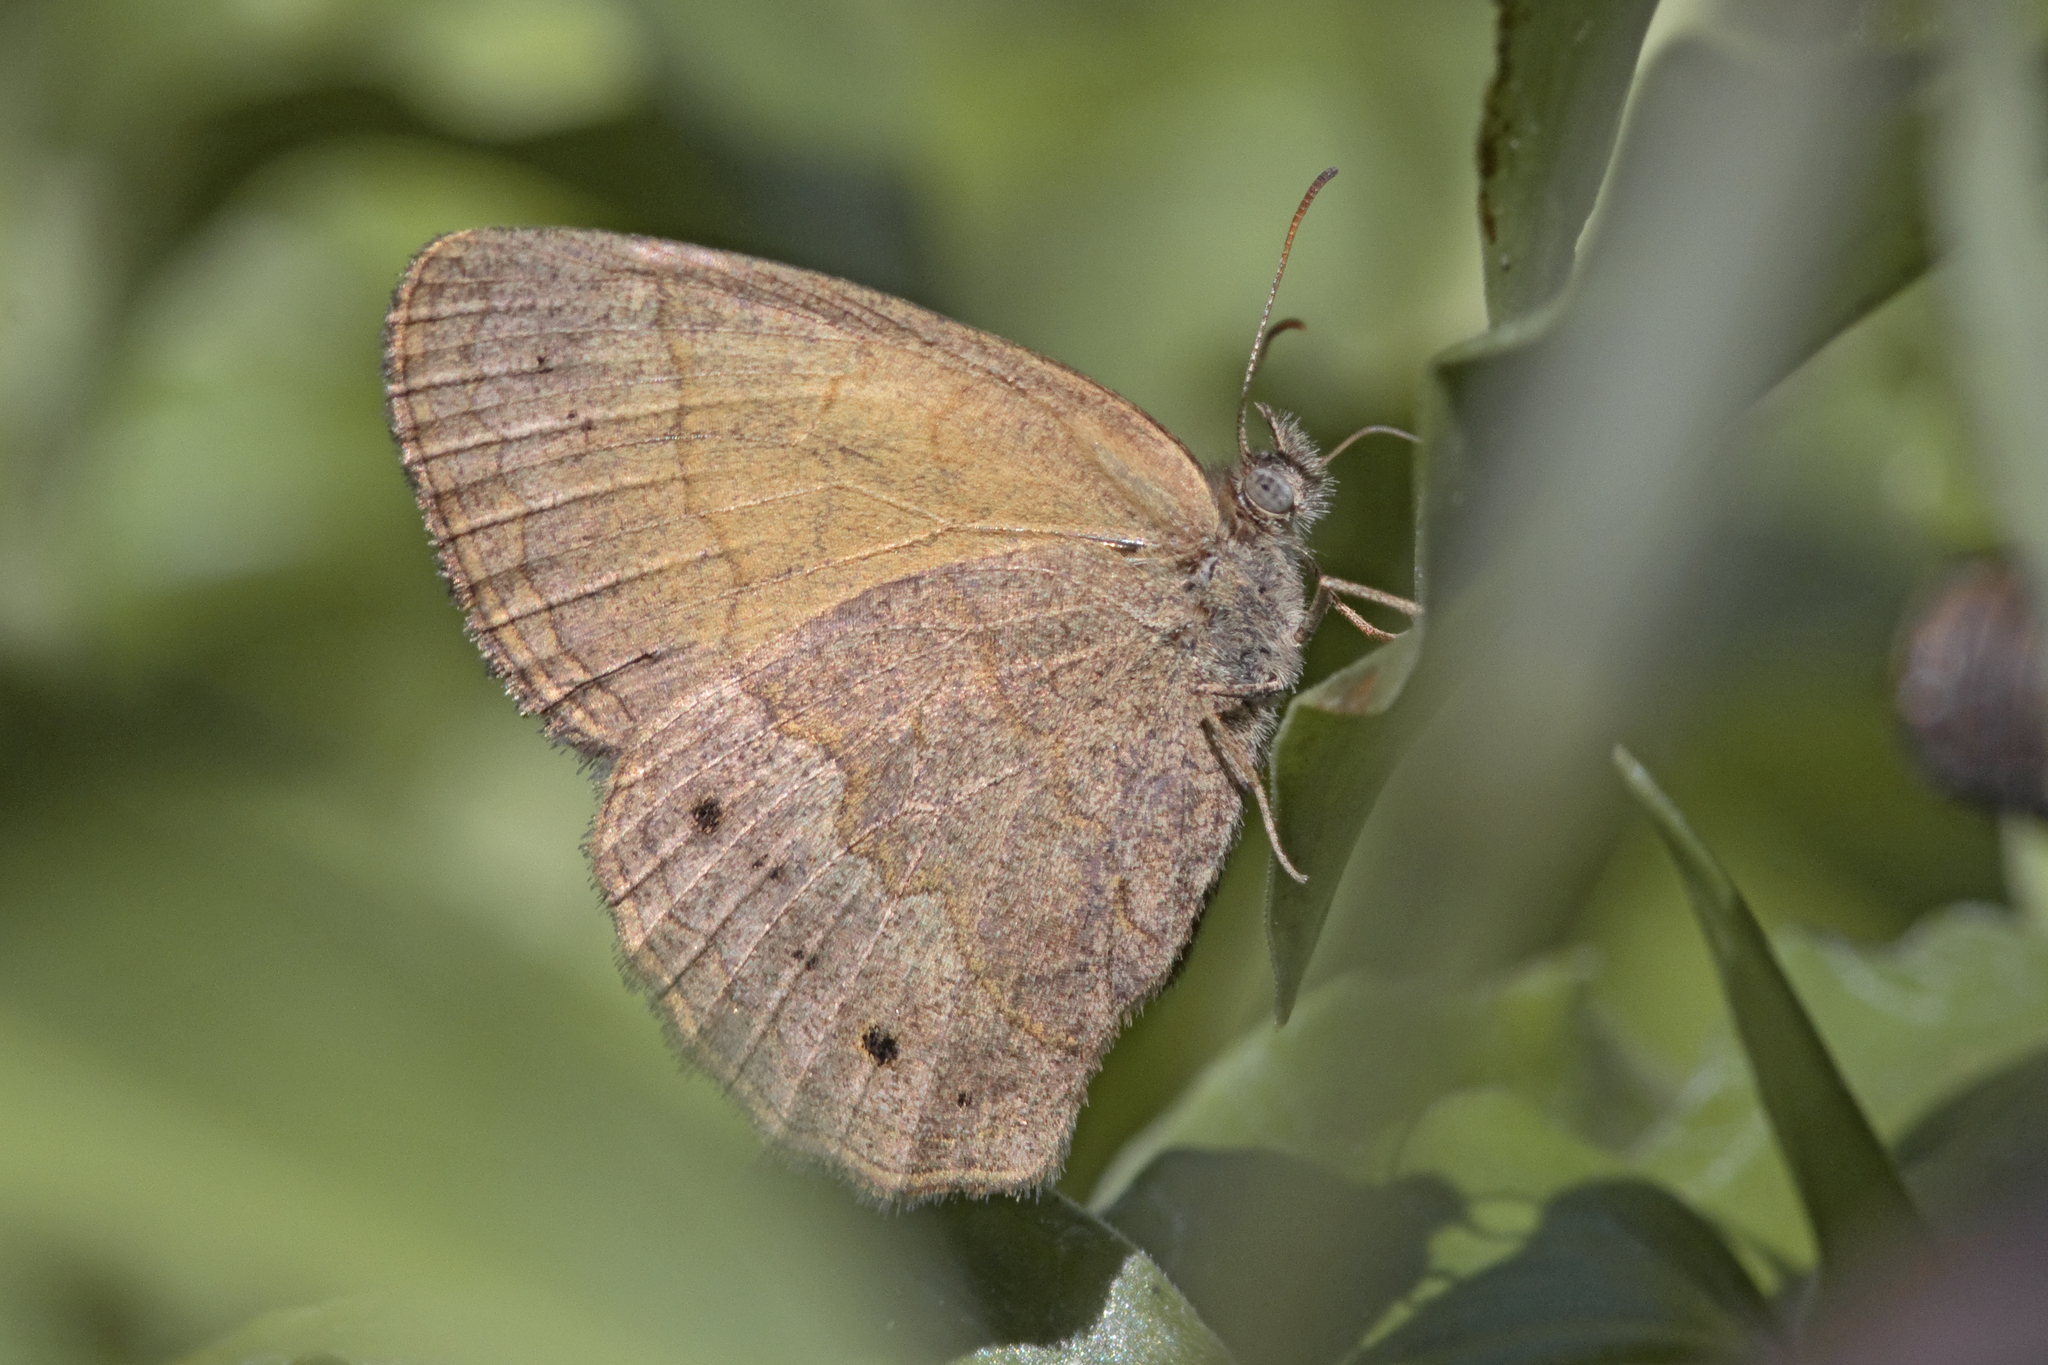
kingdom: Animalia
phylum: Arthropoda
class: Insecta
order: Lepidoptera
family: Nymphalidae
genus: Yphthimoides
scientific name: Yphthimoides celmis
